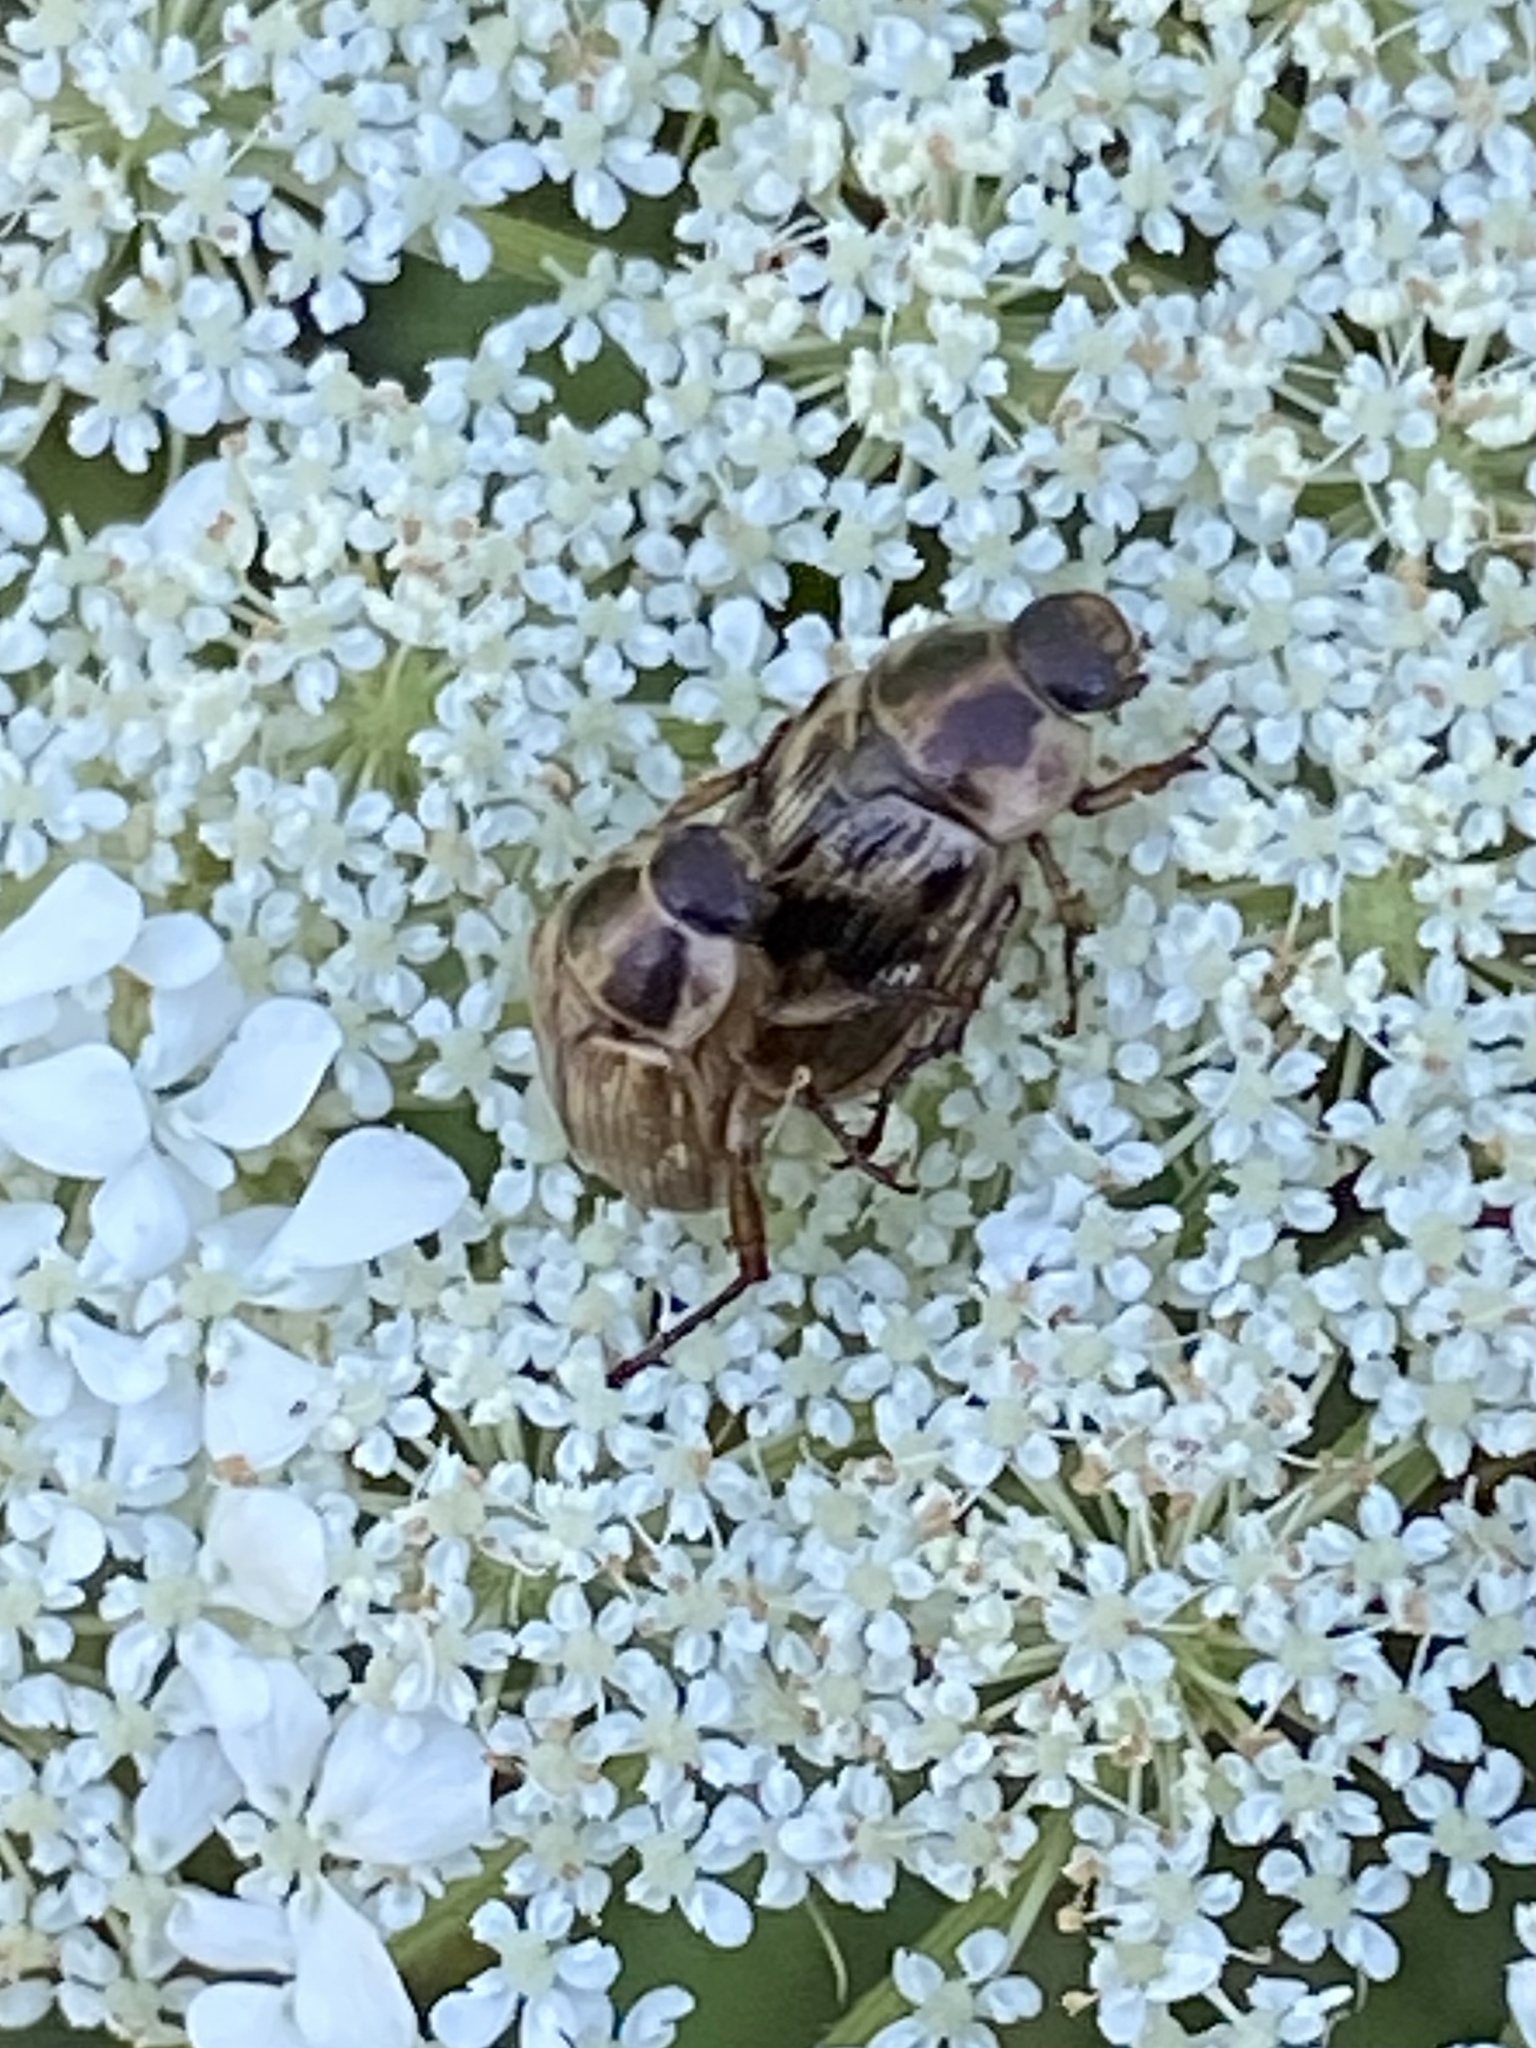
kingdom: Animalia
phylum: Arthropoda
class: Insecta
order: Coleoptera
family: Scarabaeidae
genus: Exomala
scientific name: Exomala orientalis
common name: Oriental beetle
